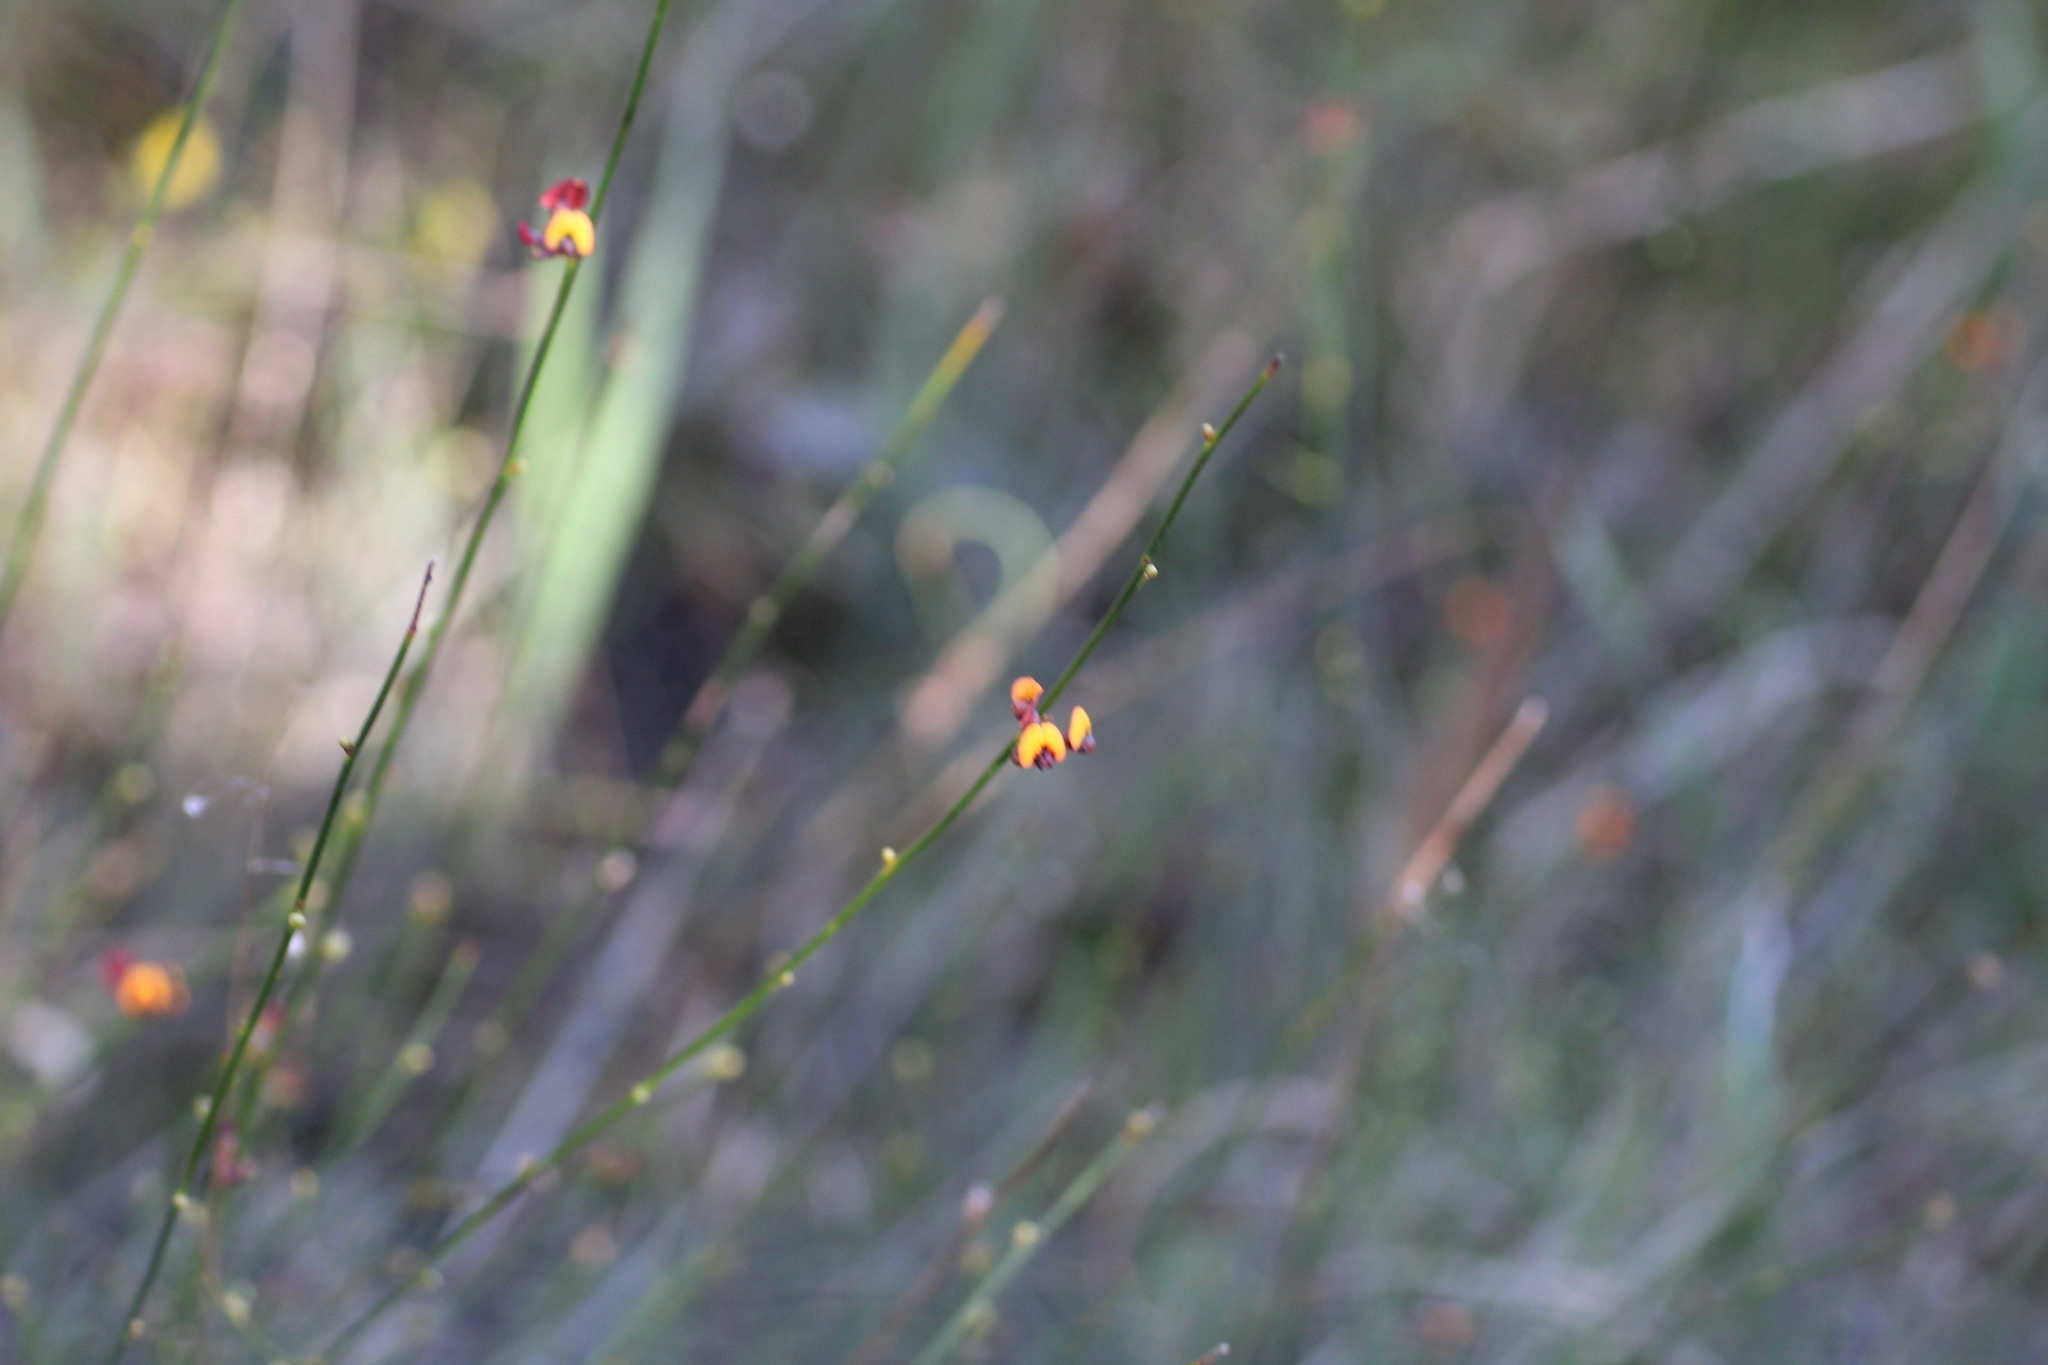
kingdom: Plantae
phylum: Tracheophyta
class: Magnoliopsida
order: Fabales
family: Fabaceae
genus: Daviesia
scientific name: Daviesia triflora
